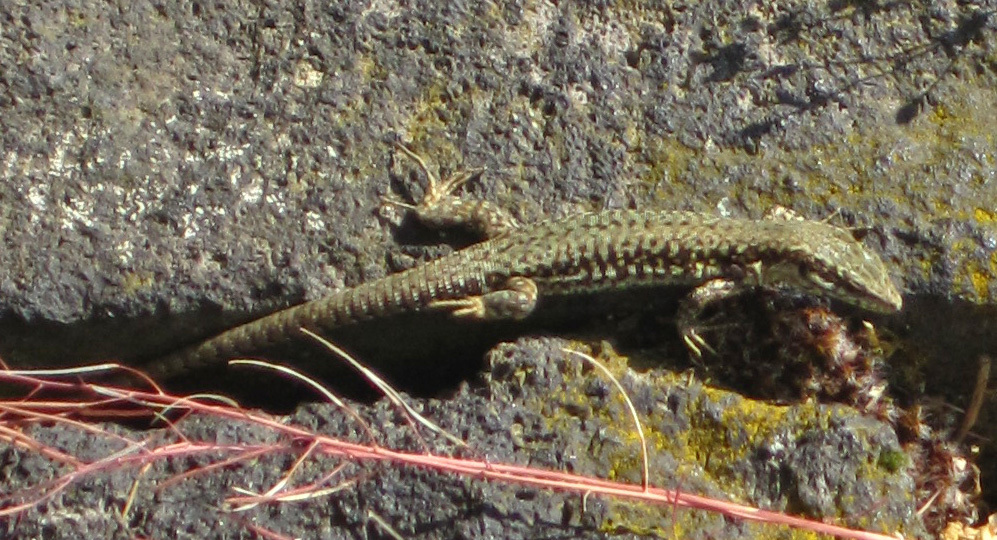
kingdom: Animalia
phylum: Chordata
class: Squamata
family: Lacertidae
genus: Podarcis
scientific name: Podarcis muralis
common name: Common wall lizard
